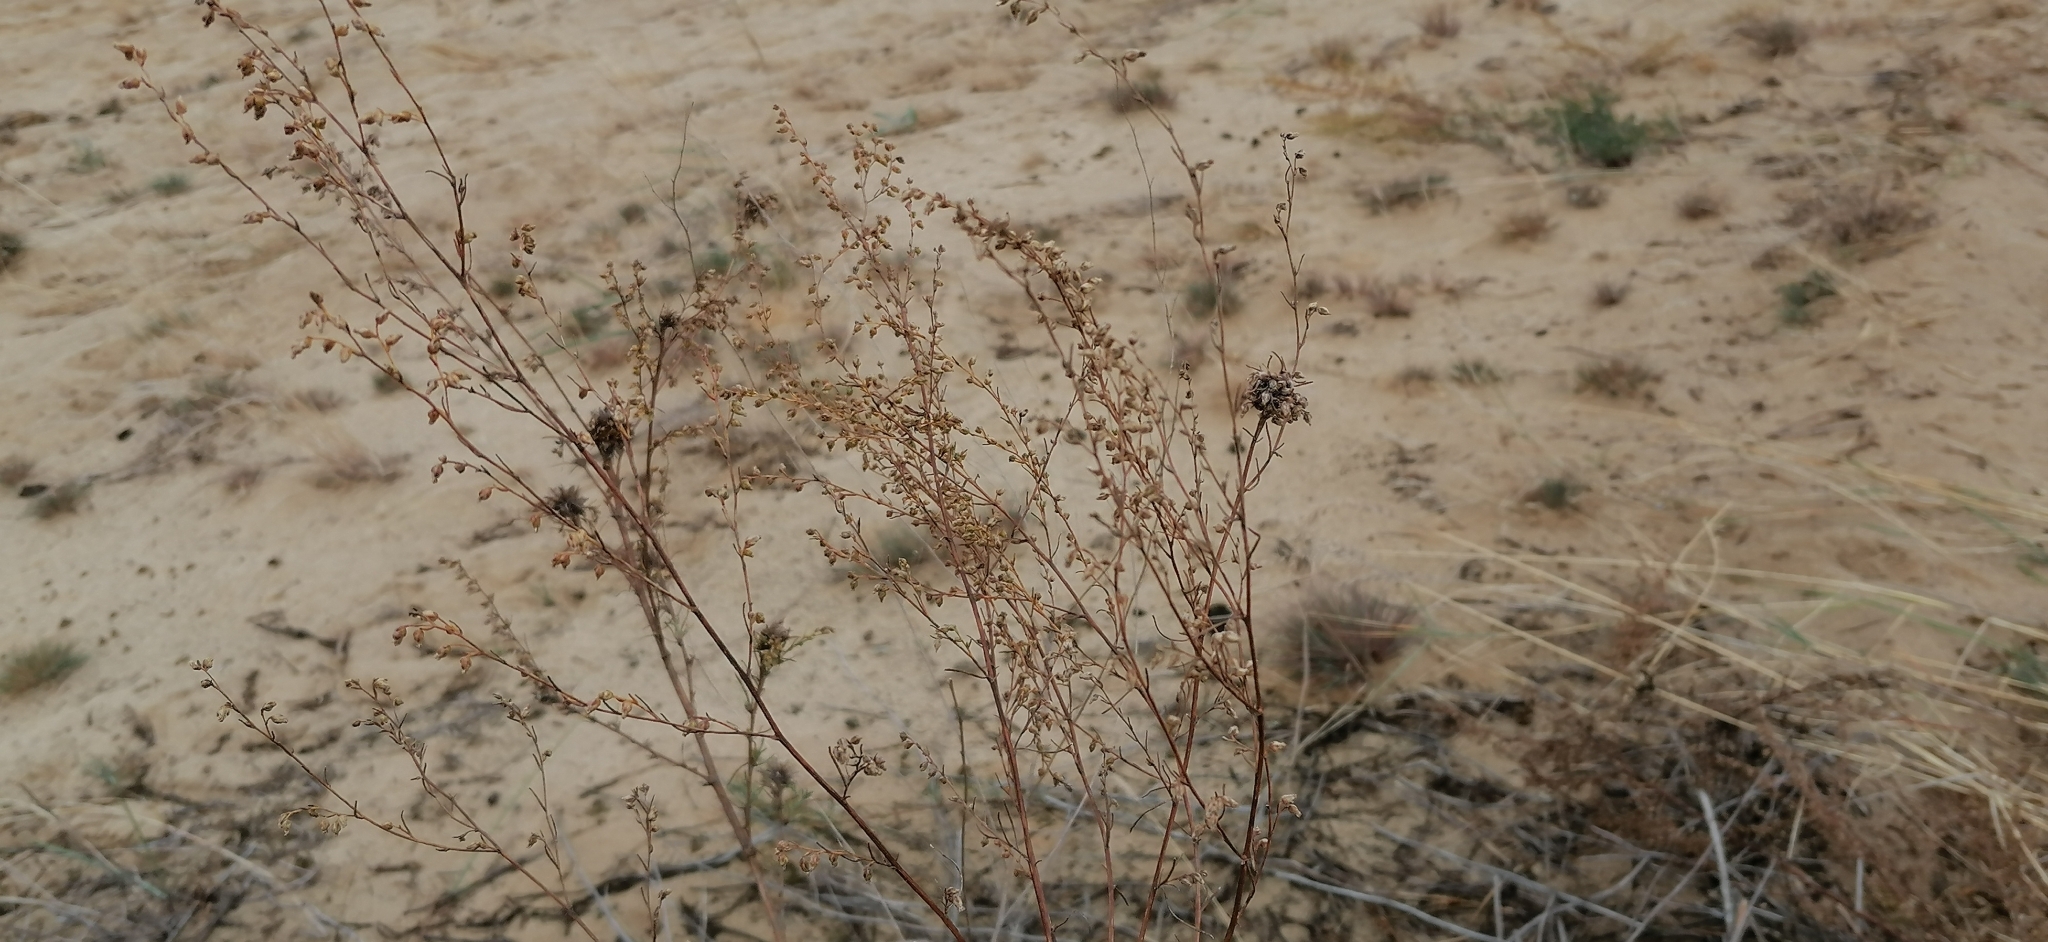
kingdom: Plantae
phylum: Tracheophyta
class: Magnoliopsida
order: Asterales
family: Asteraceae
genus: Artemisia
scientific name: Artemisia marschalliana
